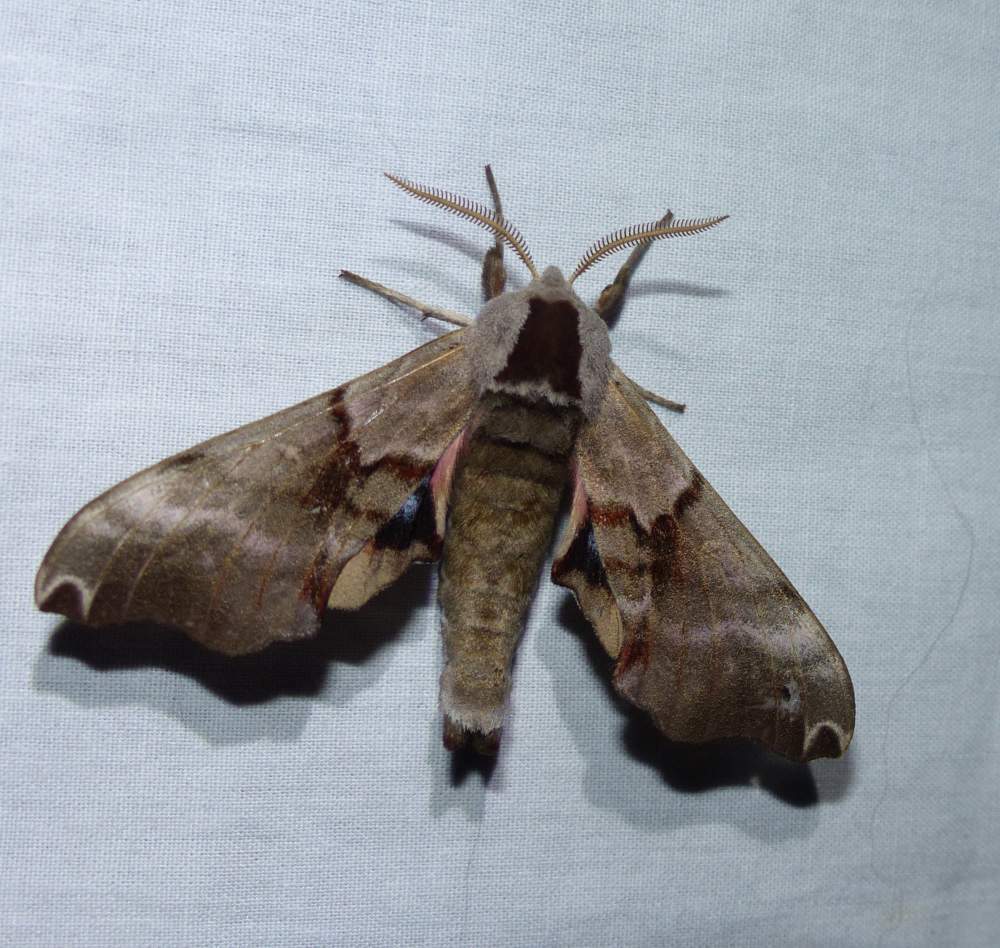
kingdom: Animalia
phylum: Arthropoda
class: Insecta
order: Lepidoptera
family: Sphingidae
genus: Smerinthus
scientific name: Smerinthus jamaicensis
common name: Twin spotted sphinx
